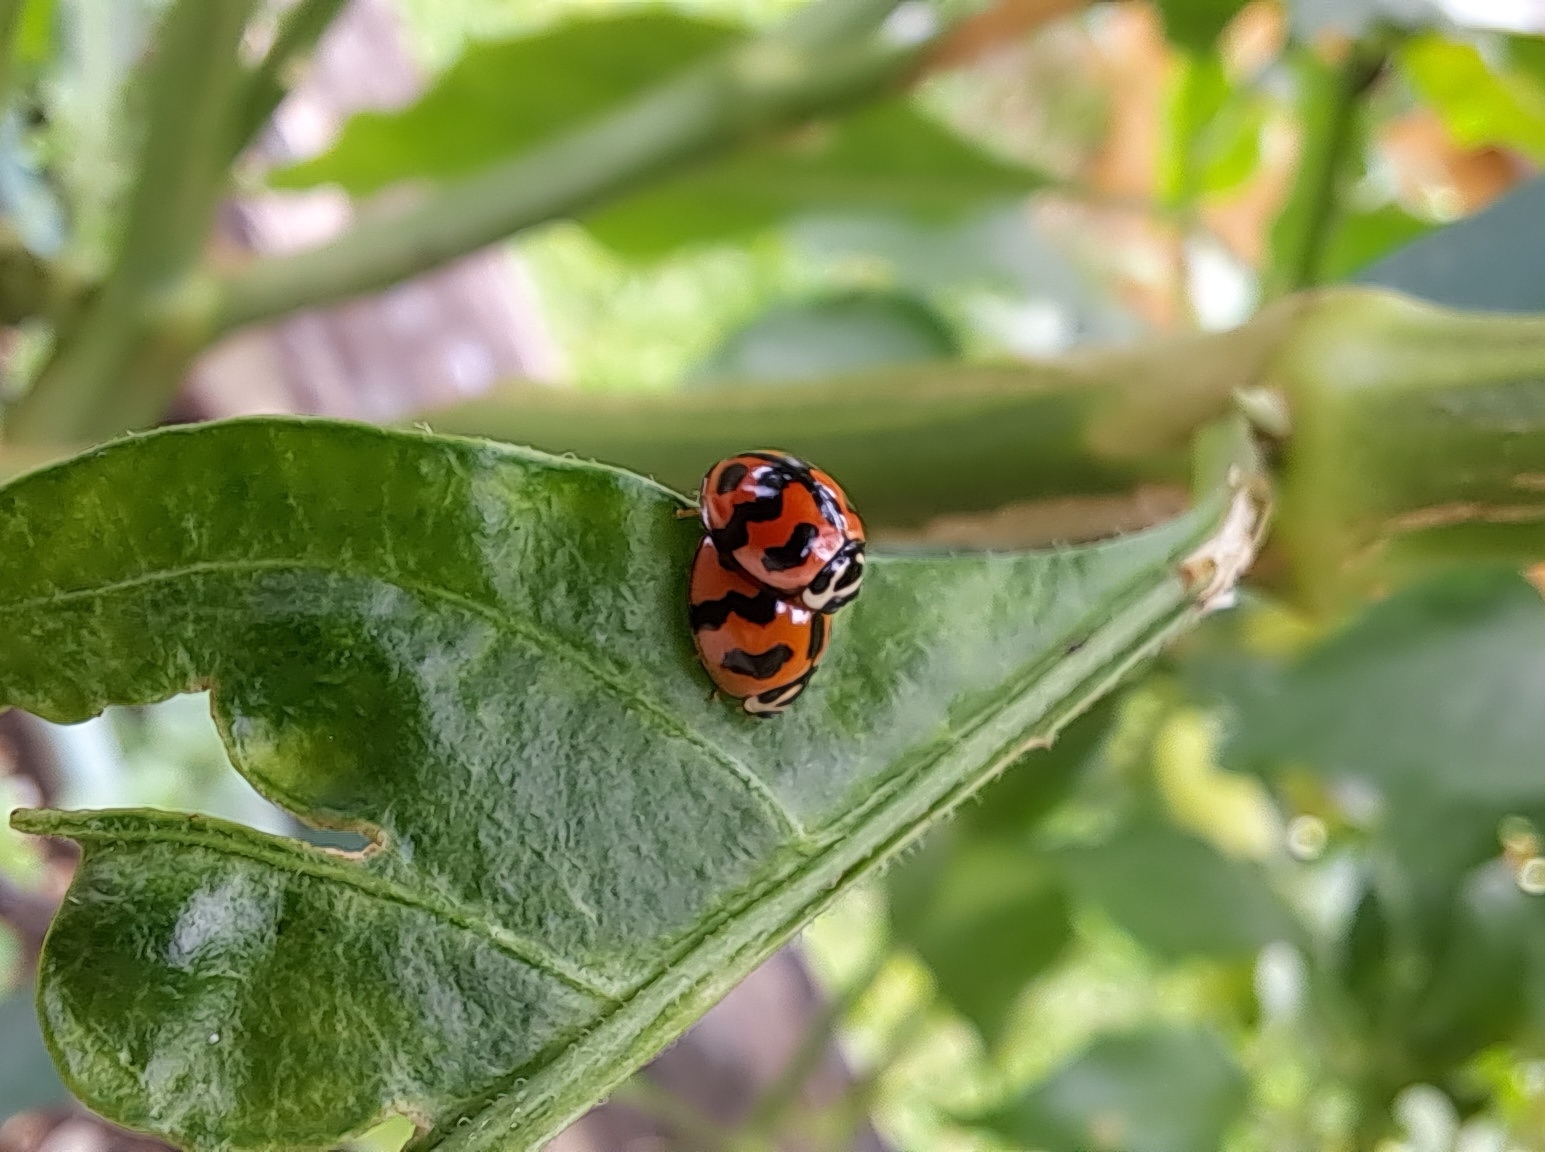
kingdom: Animalia
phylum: Arthropoda
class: Insecta
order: Coleoptera
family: Coccinellidae
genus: Cheilomenes
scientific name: Cheilomenes sexmaculata
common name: Ladybird beetle
